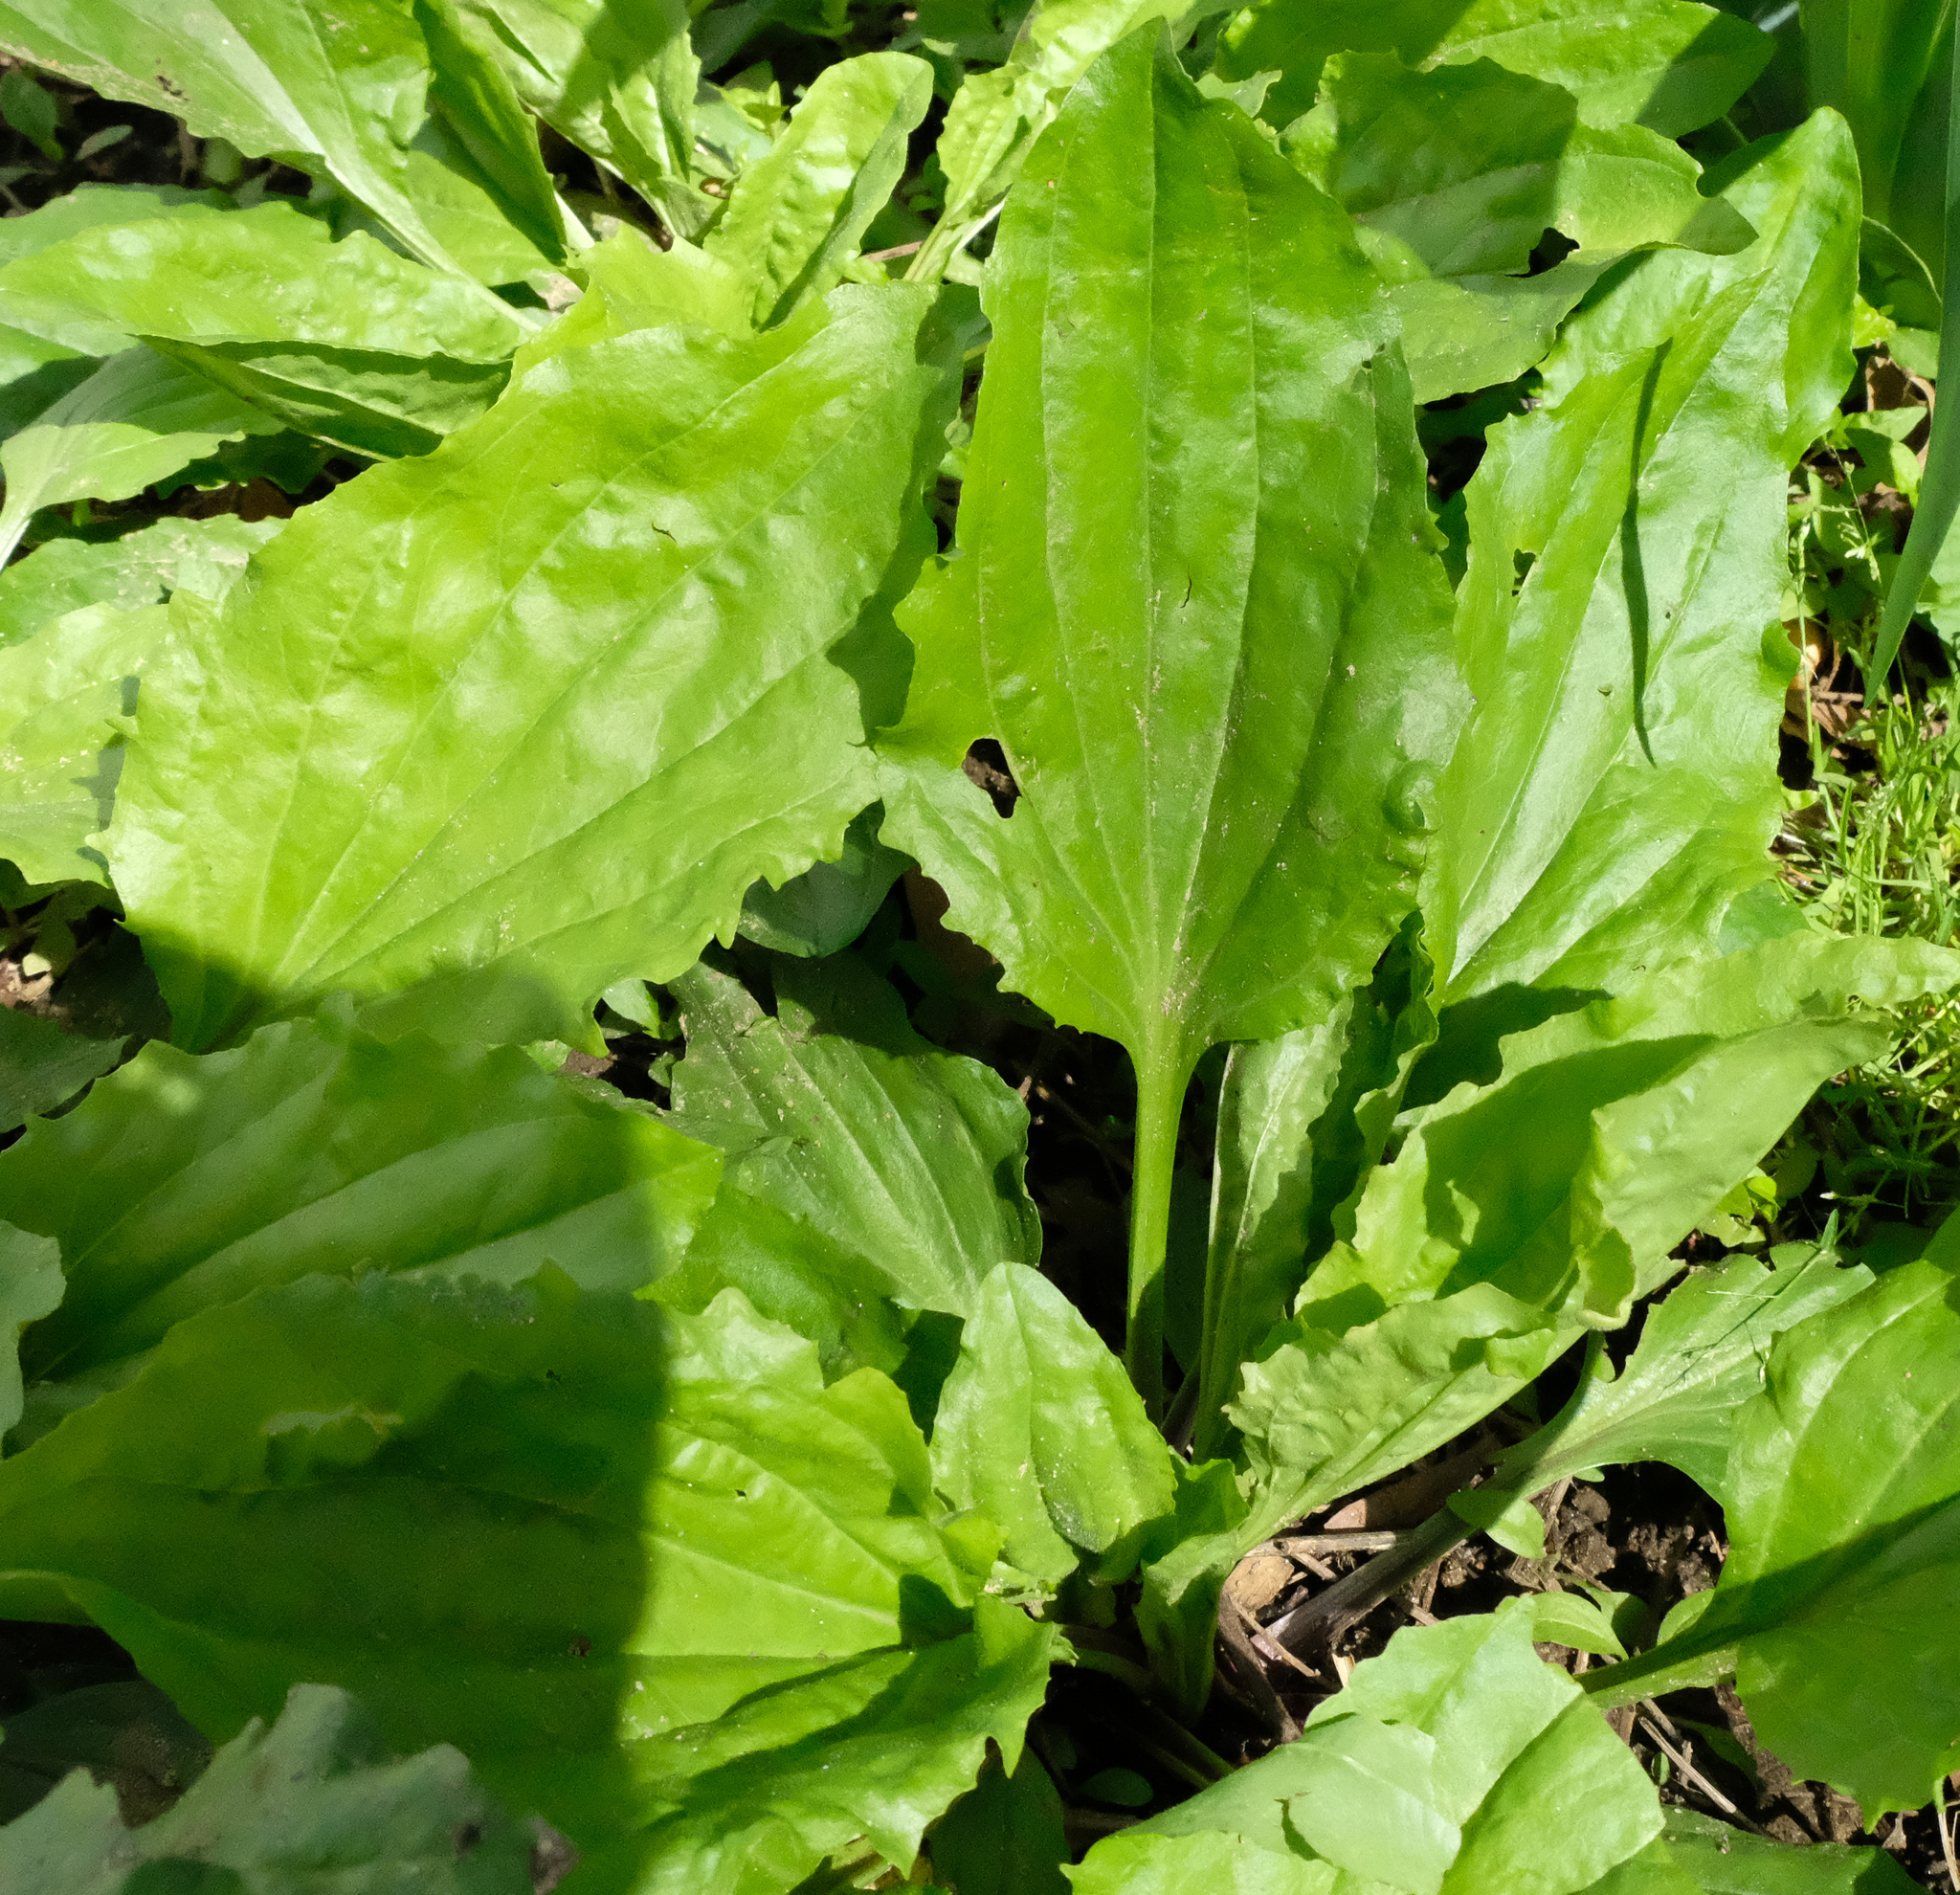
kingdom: Plantae
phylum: Tracheophyta
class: Magnoliopsida
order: Lamiales
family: Plantaginaceae
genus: Plantago
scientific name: Plantago rugelii
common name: American plantain
